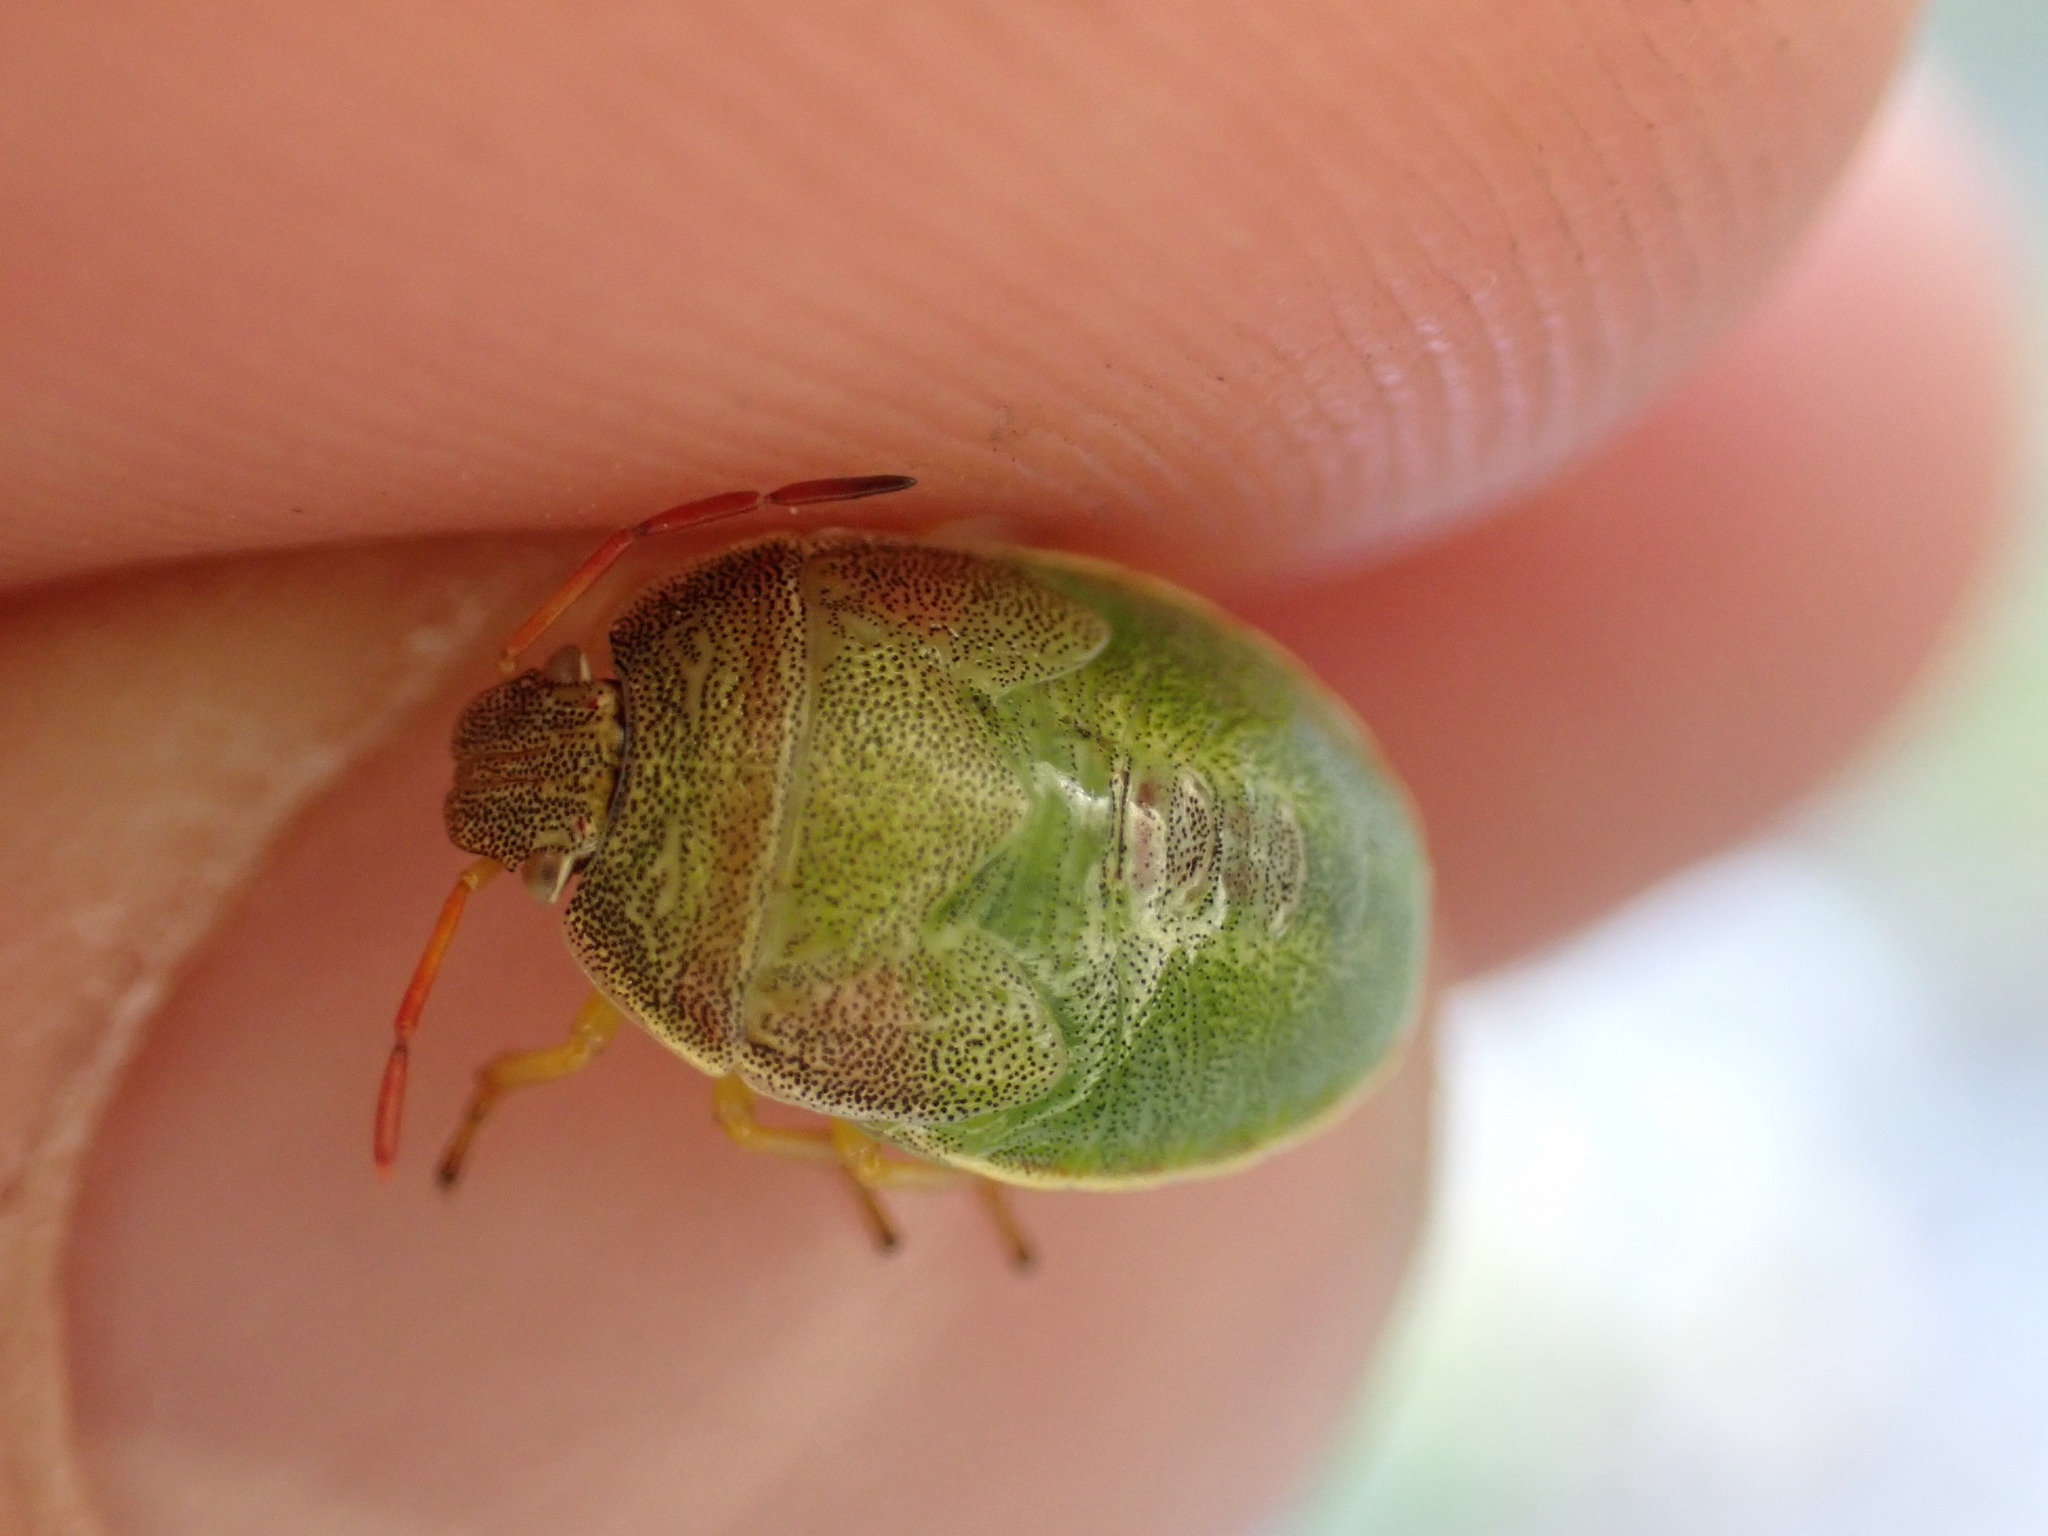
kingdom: Animalia
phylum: Arthropoda
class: Insecta
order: Hemiptera
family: Pentatomidae
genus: Piezodorus
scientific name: Piezodorus lituratus
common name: Stink bug
